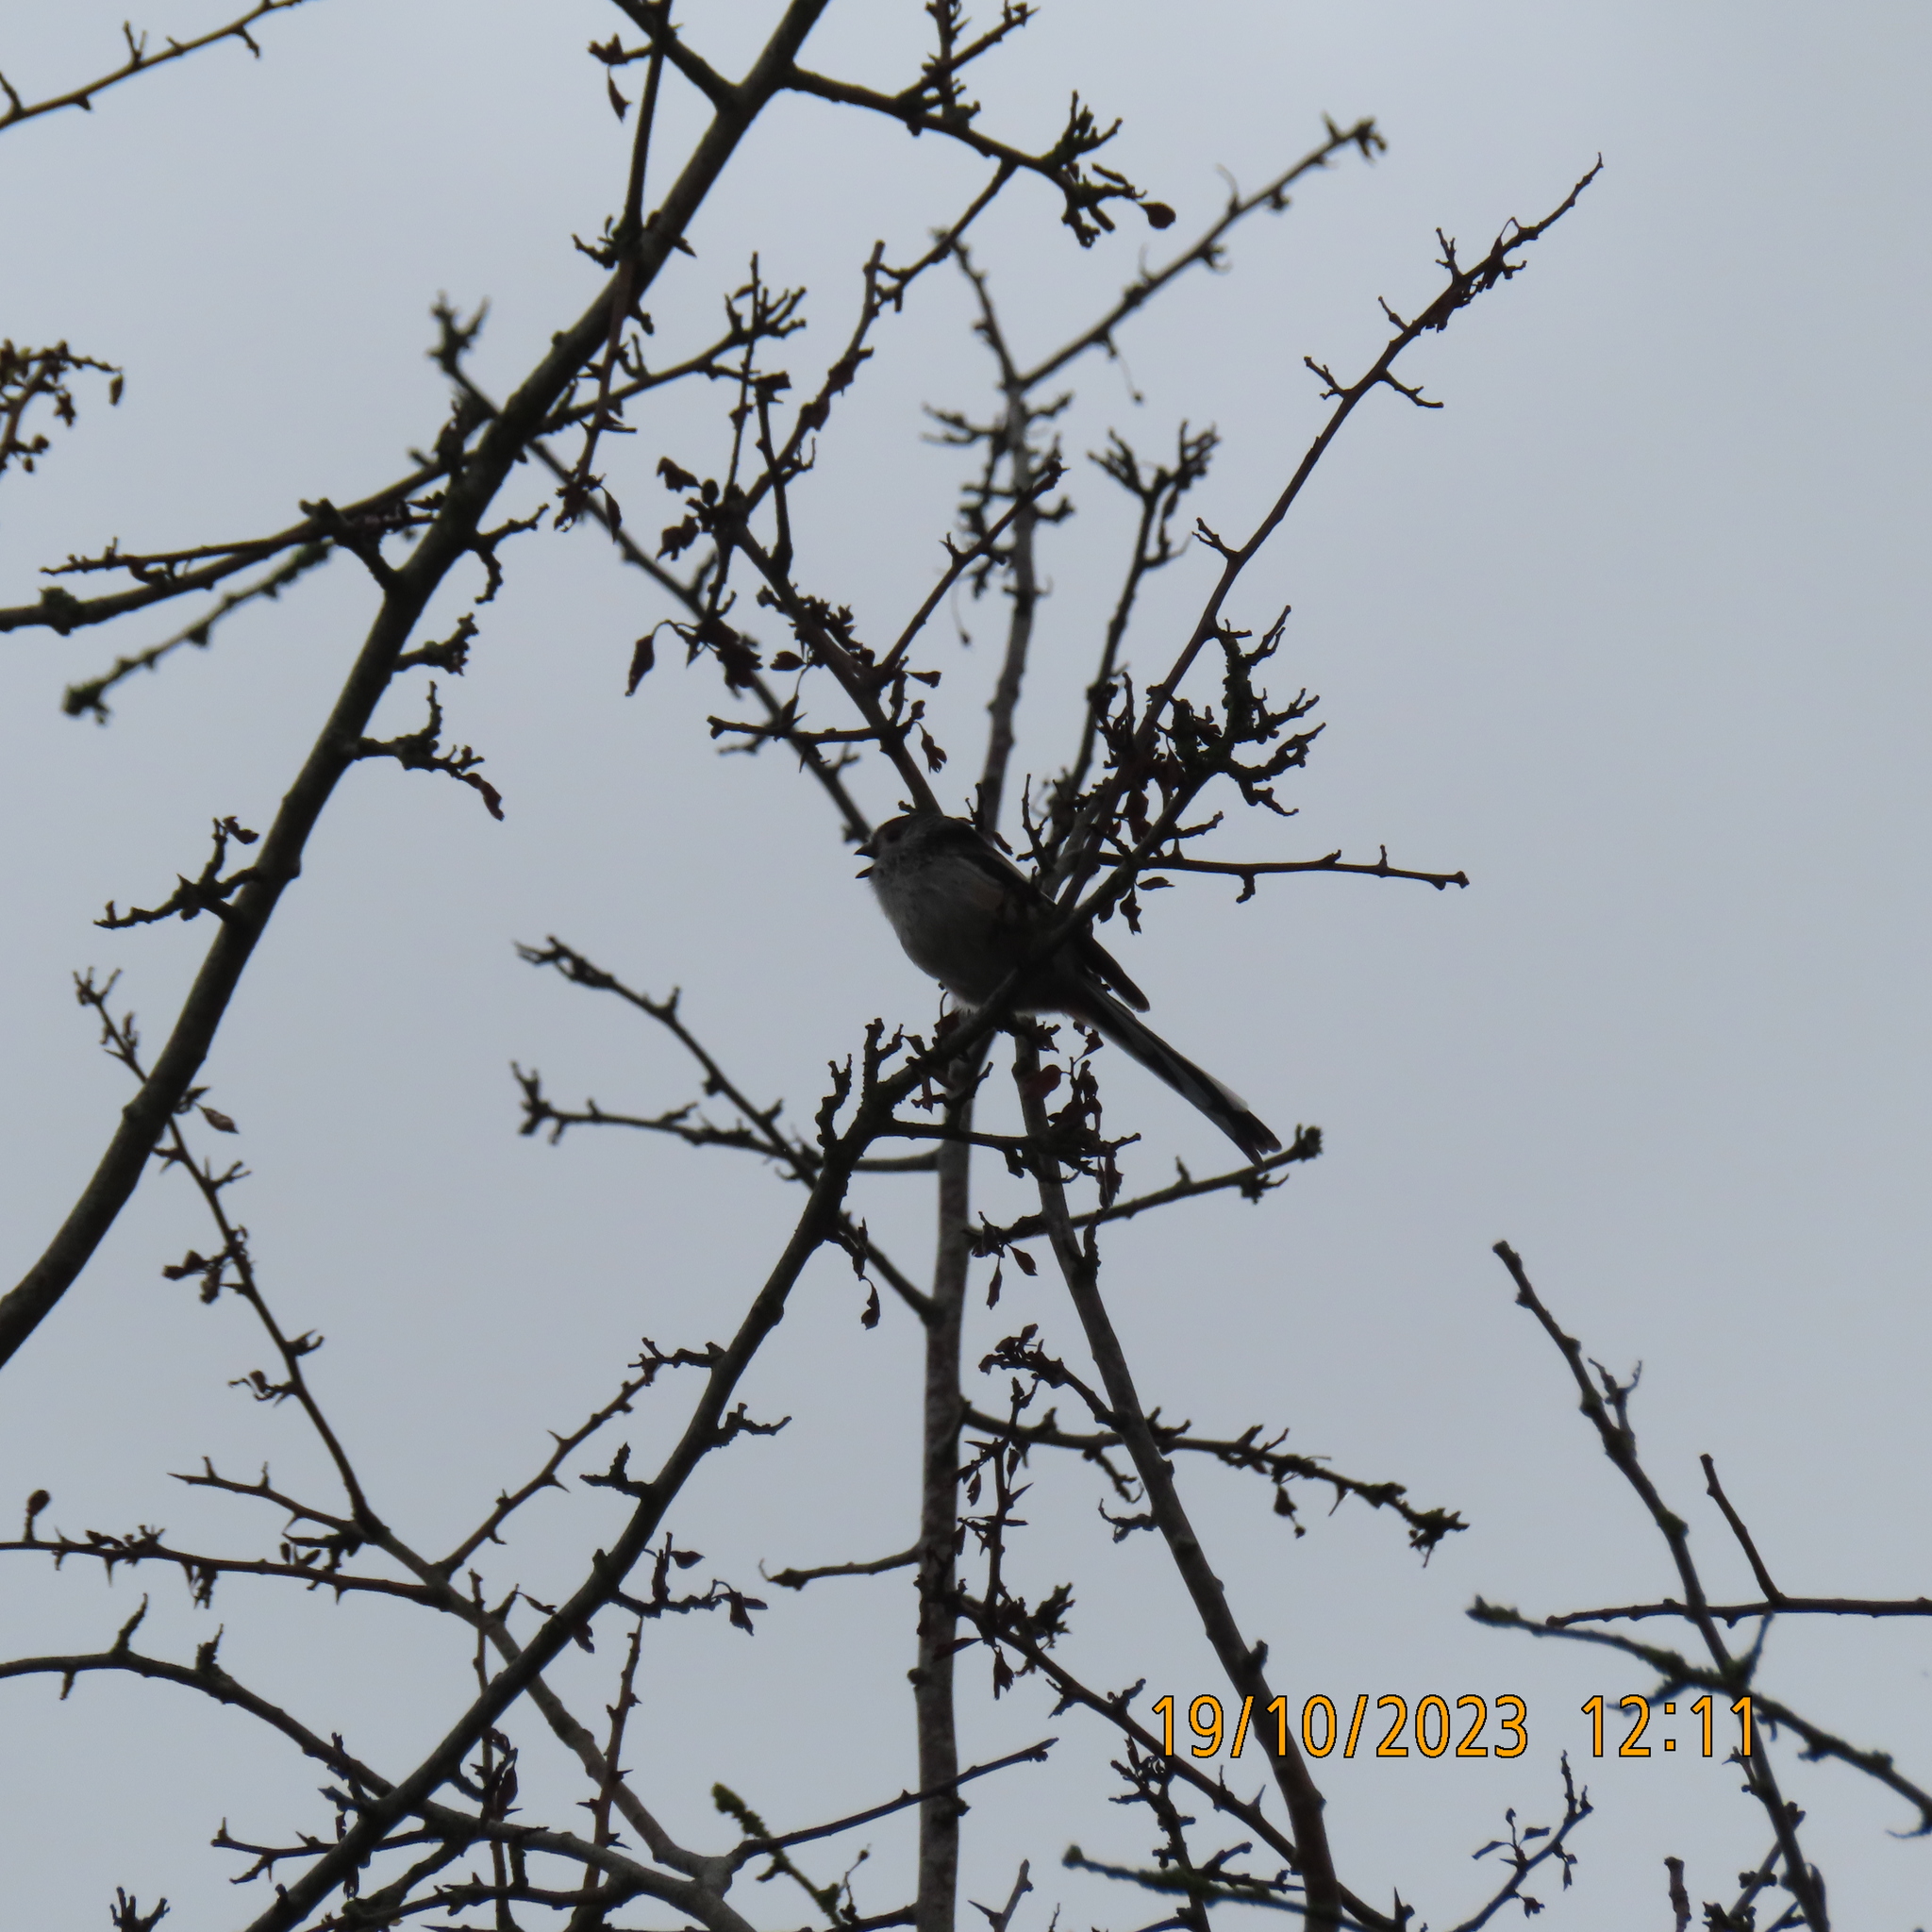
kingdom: Animalia
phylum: Chordata
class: Aves
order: Passeriformes
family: Aegithalidae
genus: Aegithalos
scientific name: Aegithalos caudatus
